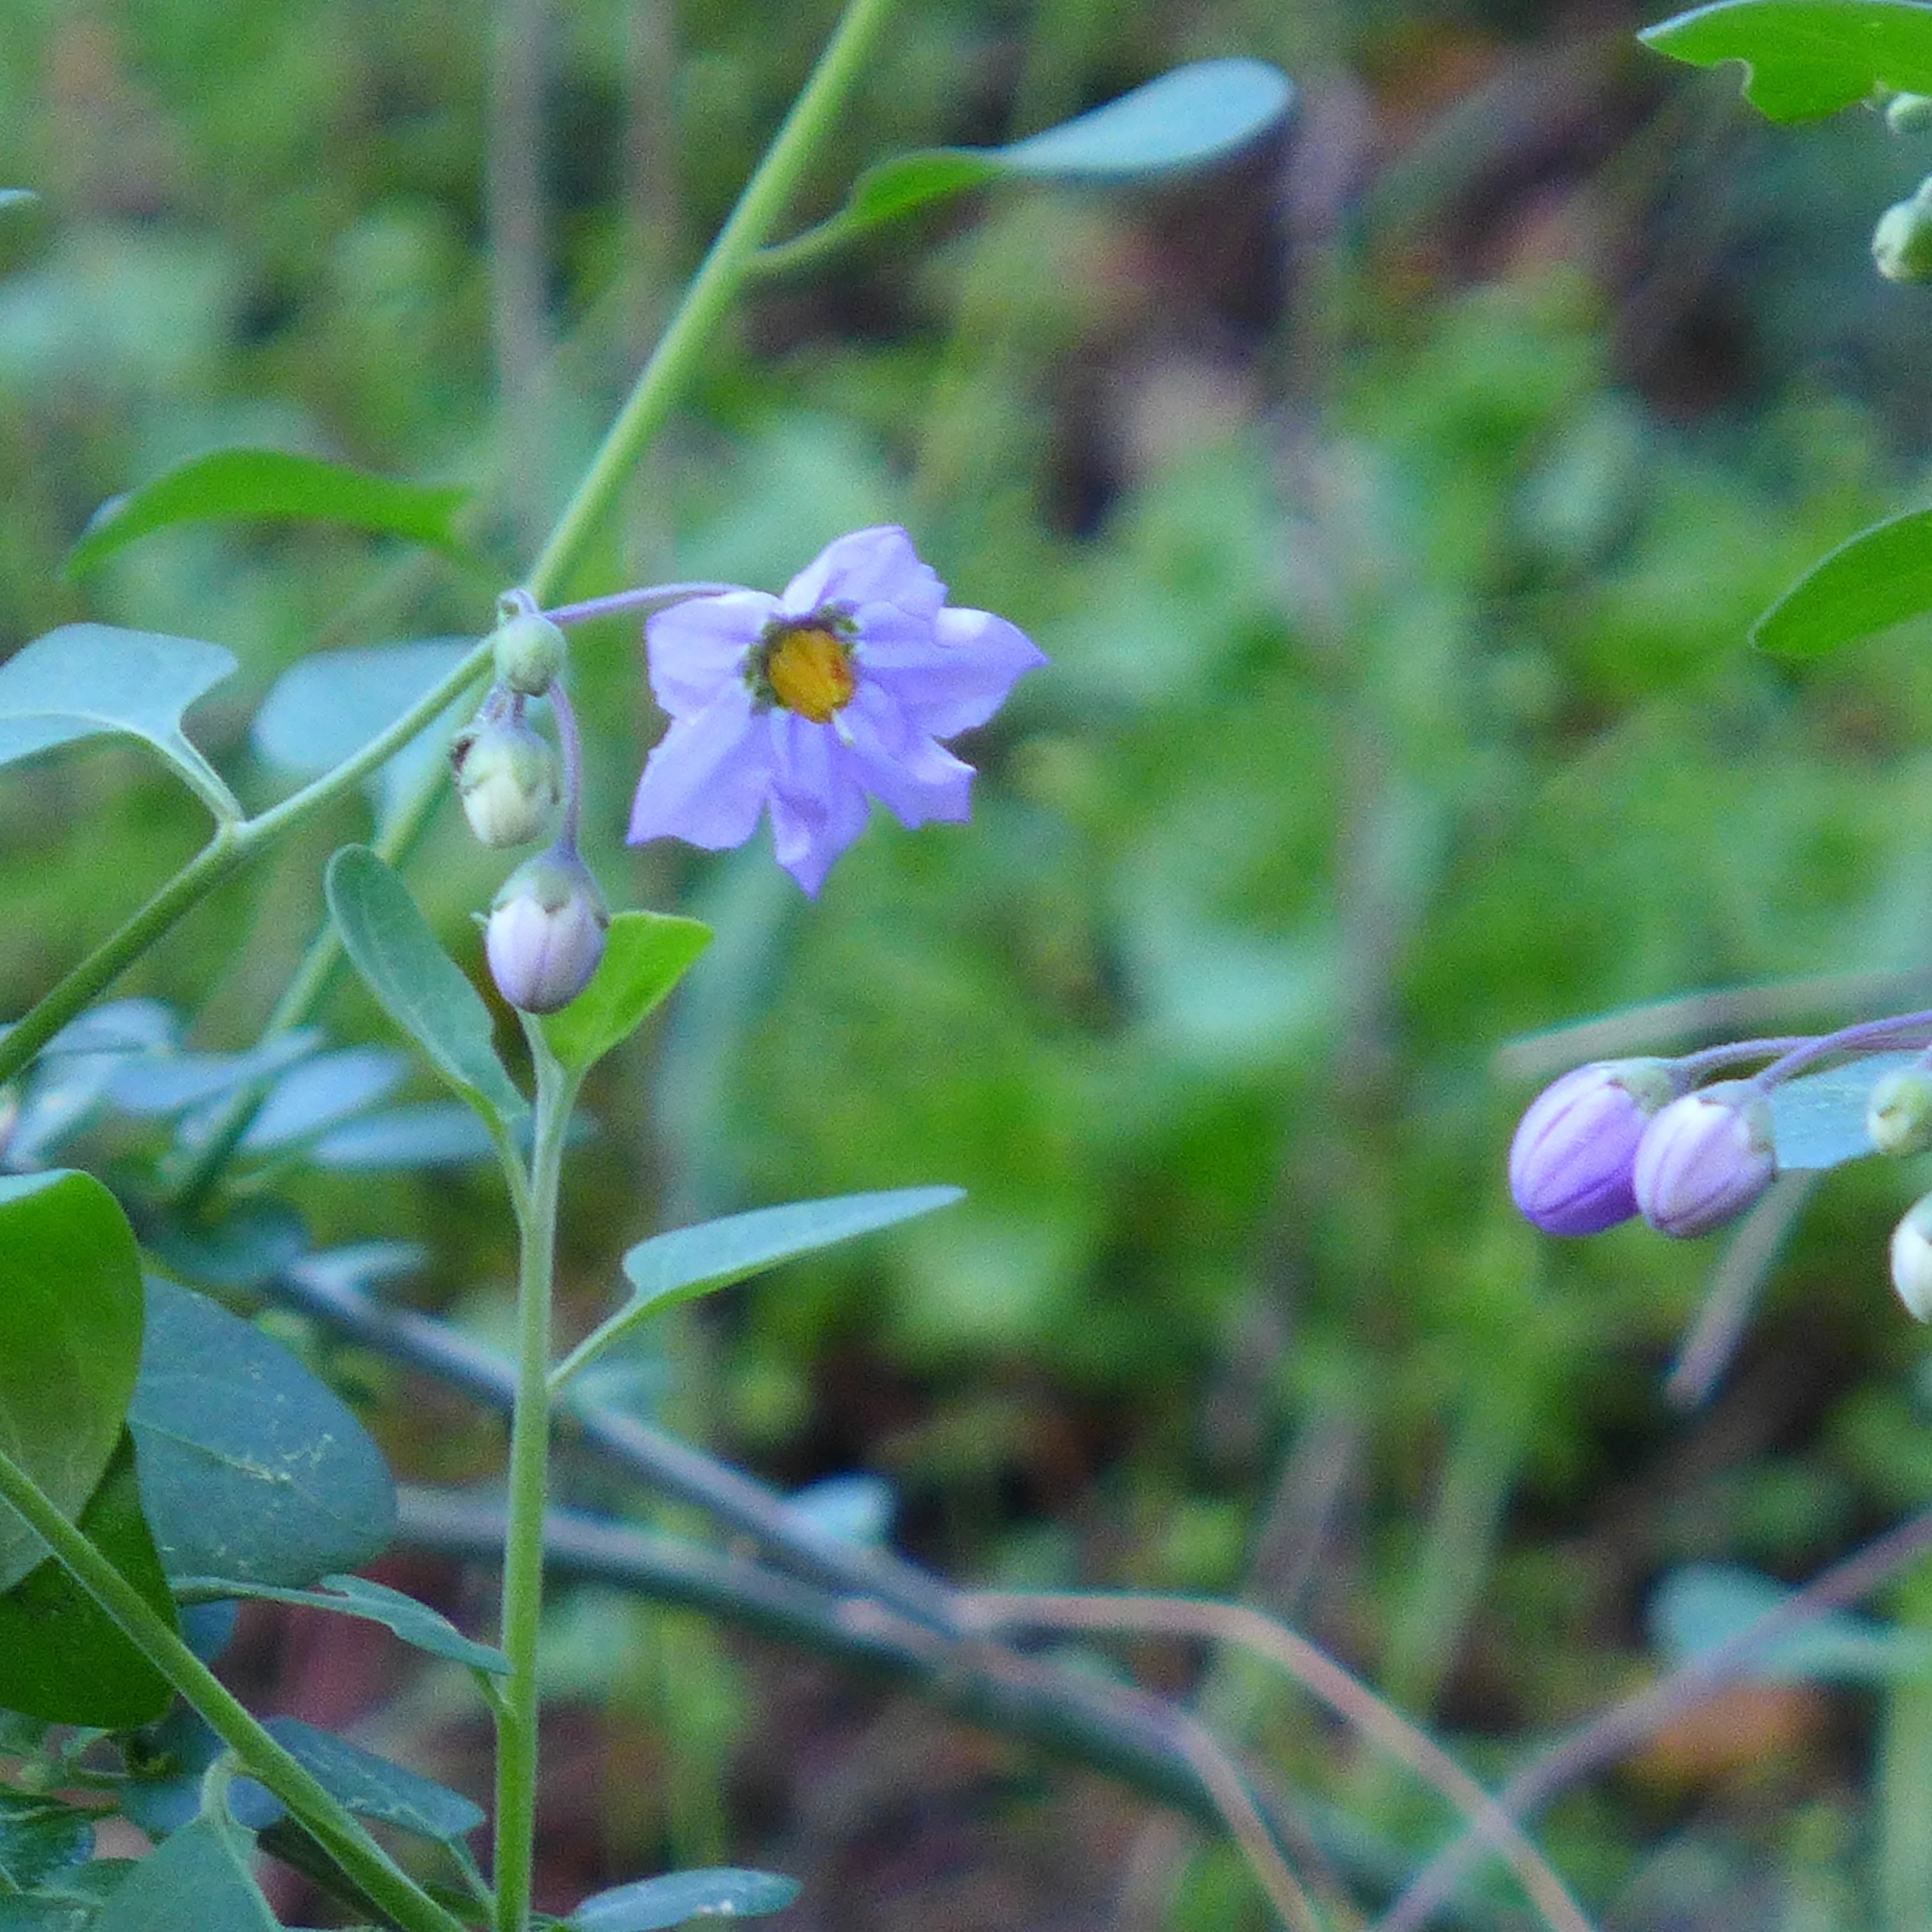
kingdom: Plantae
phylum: Tracheophyta
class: Magnoliopsida
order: Solanales
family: Solanaceae
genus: Solanum
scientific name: Solanum umbelliferum
